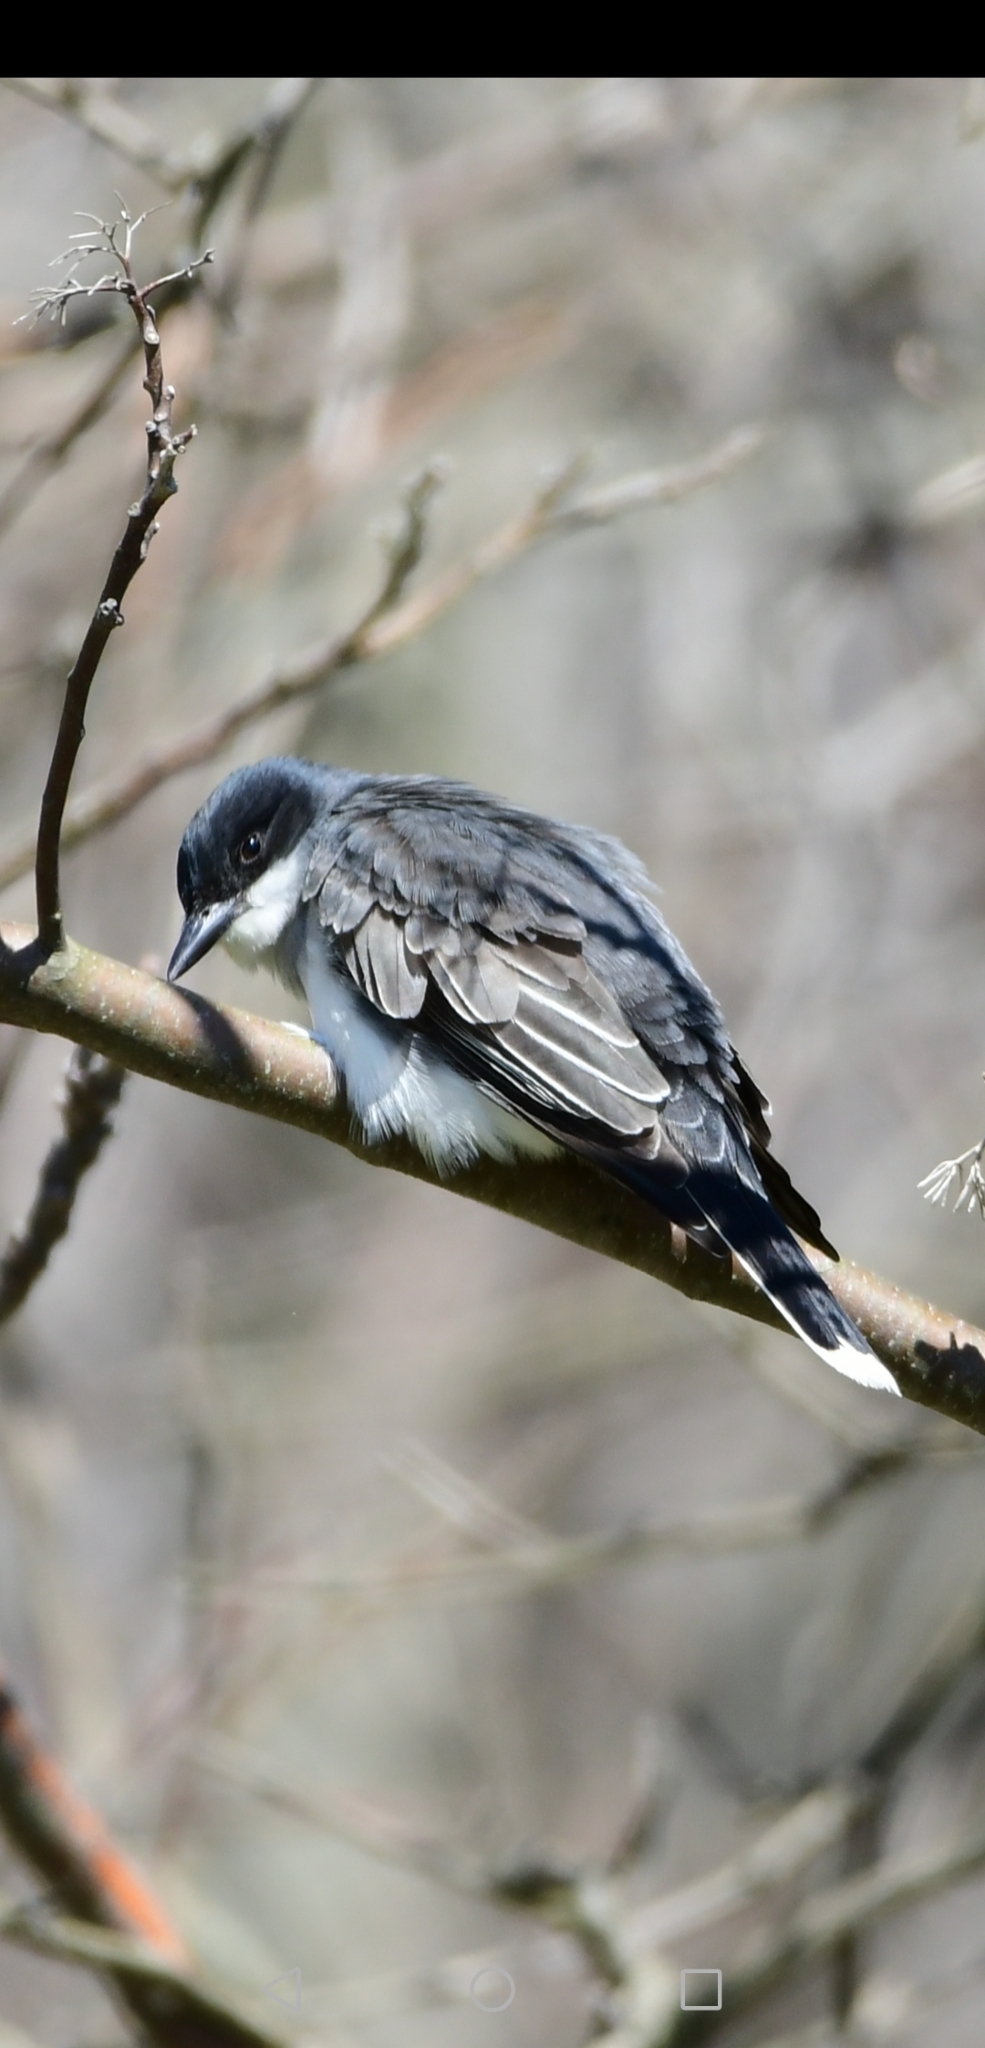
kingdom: Animalia
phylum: Chordata
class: Aves
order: Passeriformes
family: Tyrannidae
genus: Tyrannus
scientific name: Tyrannus tyrannus
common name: Eastern kingbird
